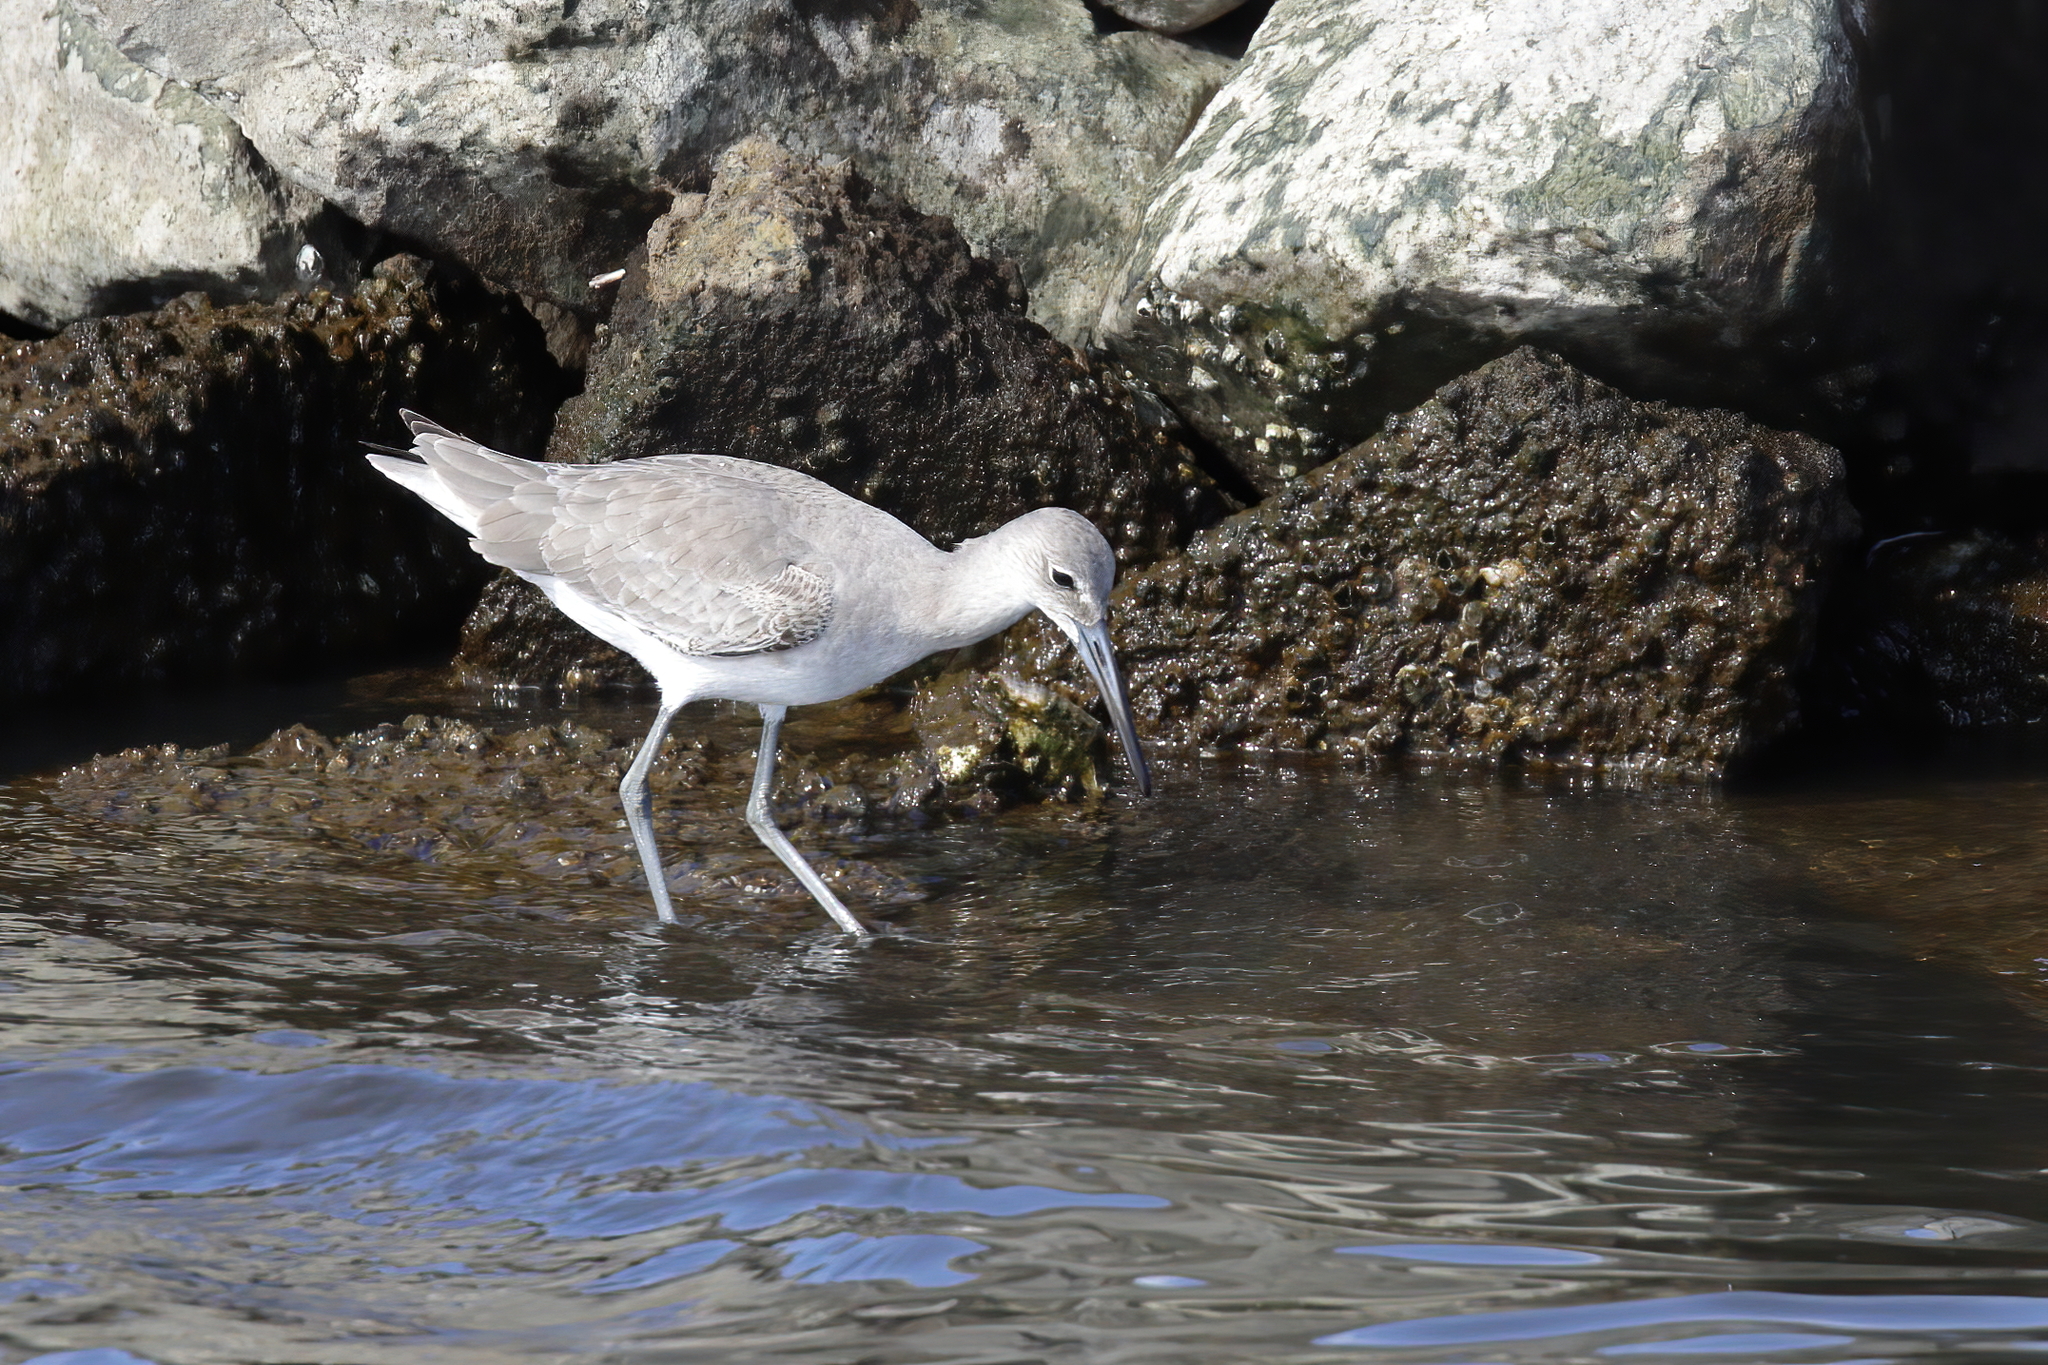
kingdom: Animalia
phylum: Chordata
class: Aves
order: Charadriiformes
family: Scolopacidae
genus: Tringa
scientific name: Tringa semipalmata
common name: Willet
